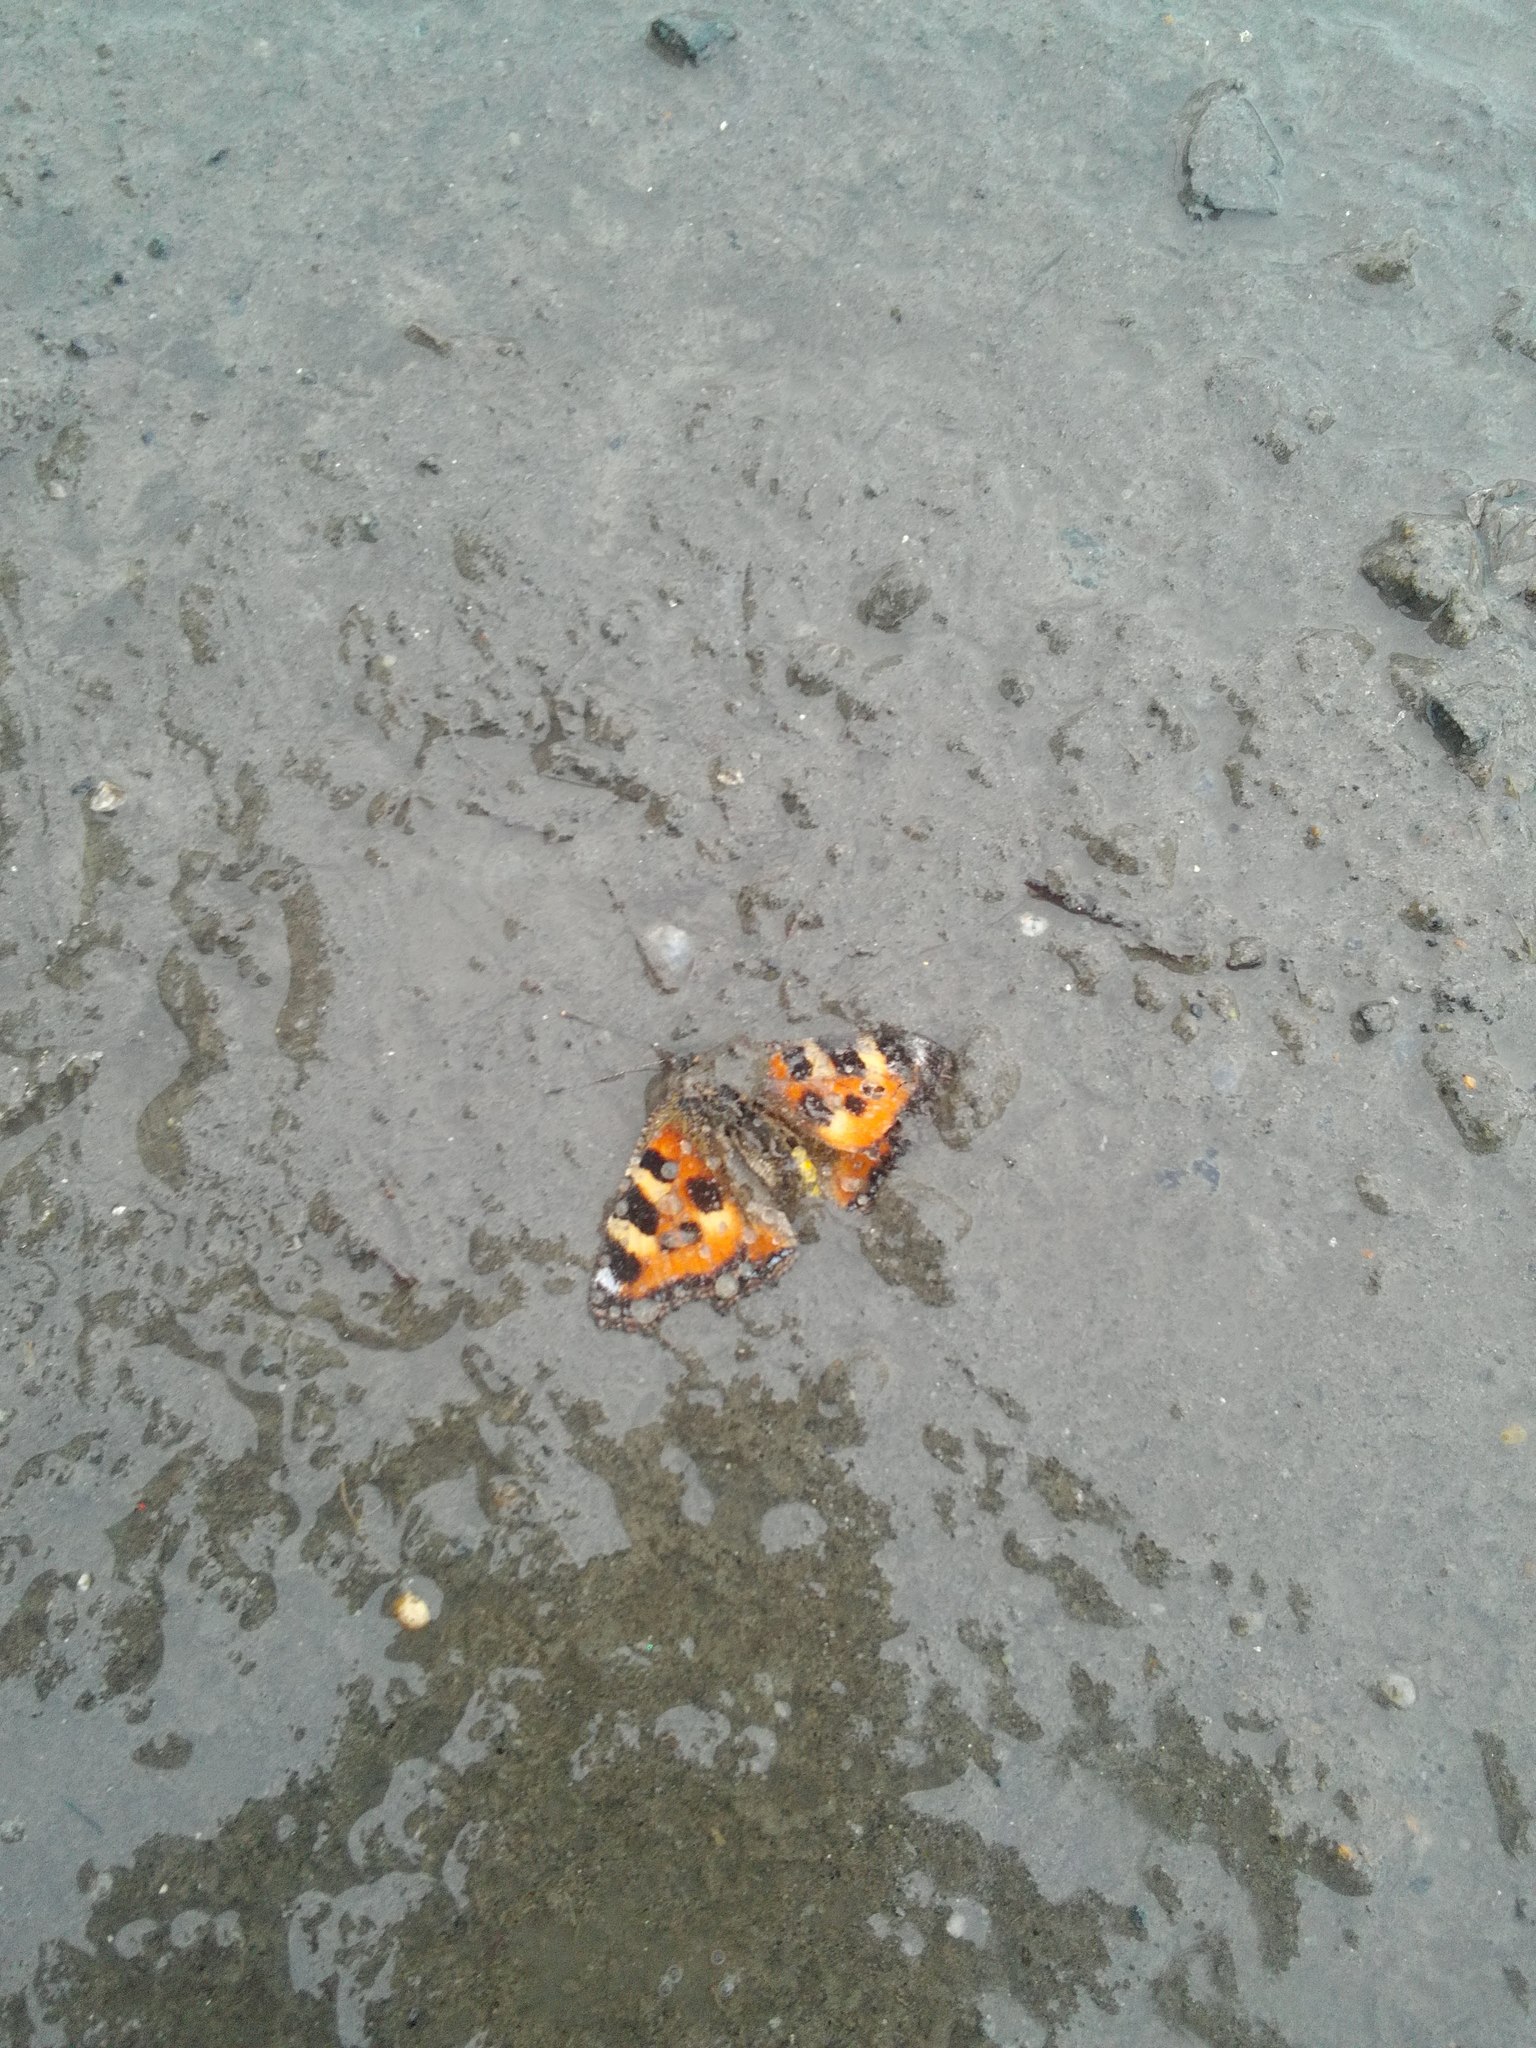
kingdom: Animalia
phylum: Arthropoda
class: Insecta
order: Lepidoptera
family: Nymphalidae
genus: Aglais
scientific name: Aglais urticae
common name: Small tortoiseshell
